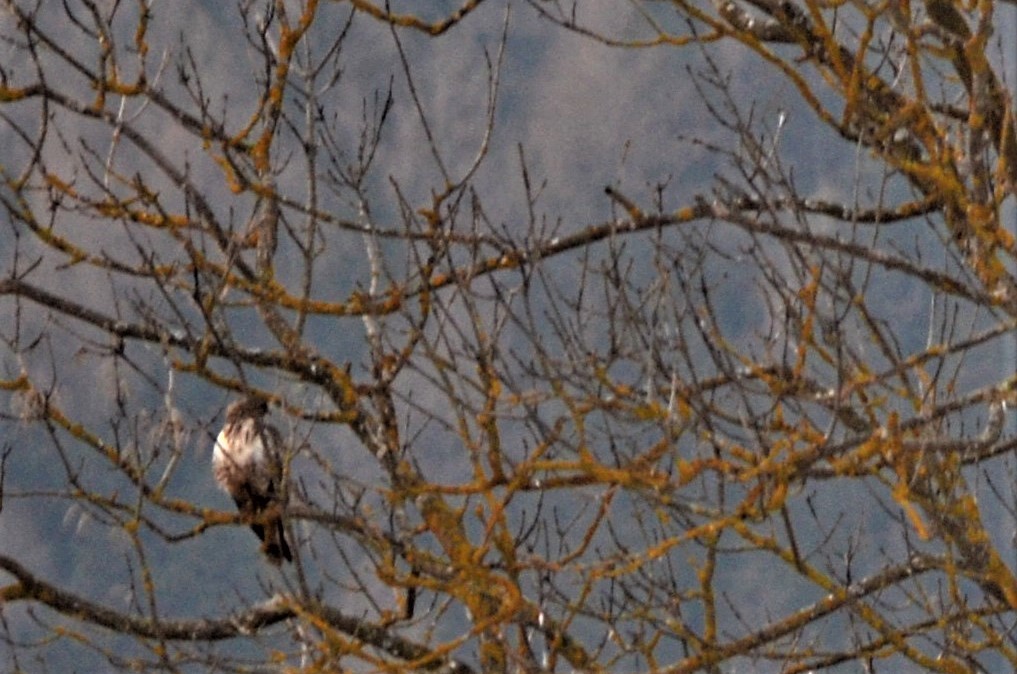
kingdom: Animalia
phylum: Chordata
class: Aves
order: Accipitriformes
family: Accipitridae
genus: Buteo
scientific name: Buteo buteo
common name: Common buzzard
